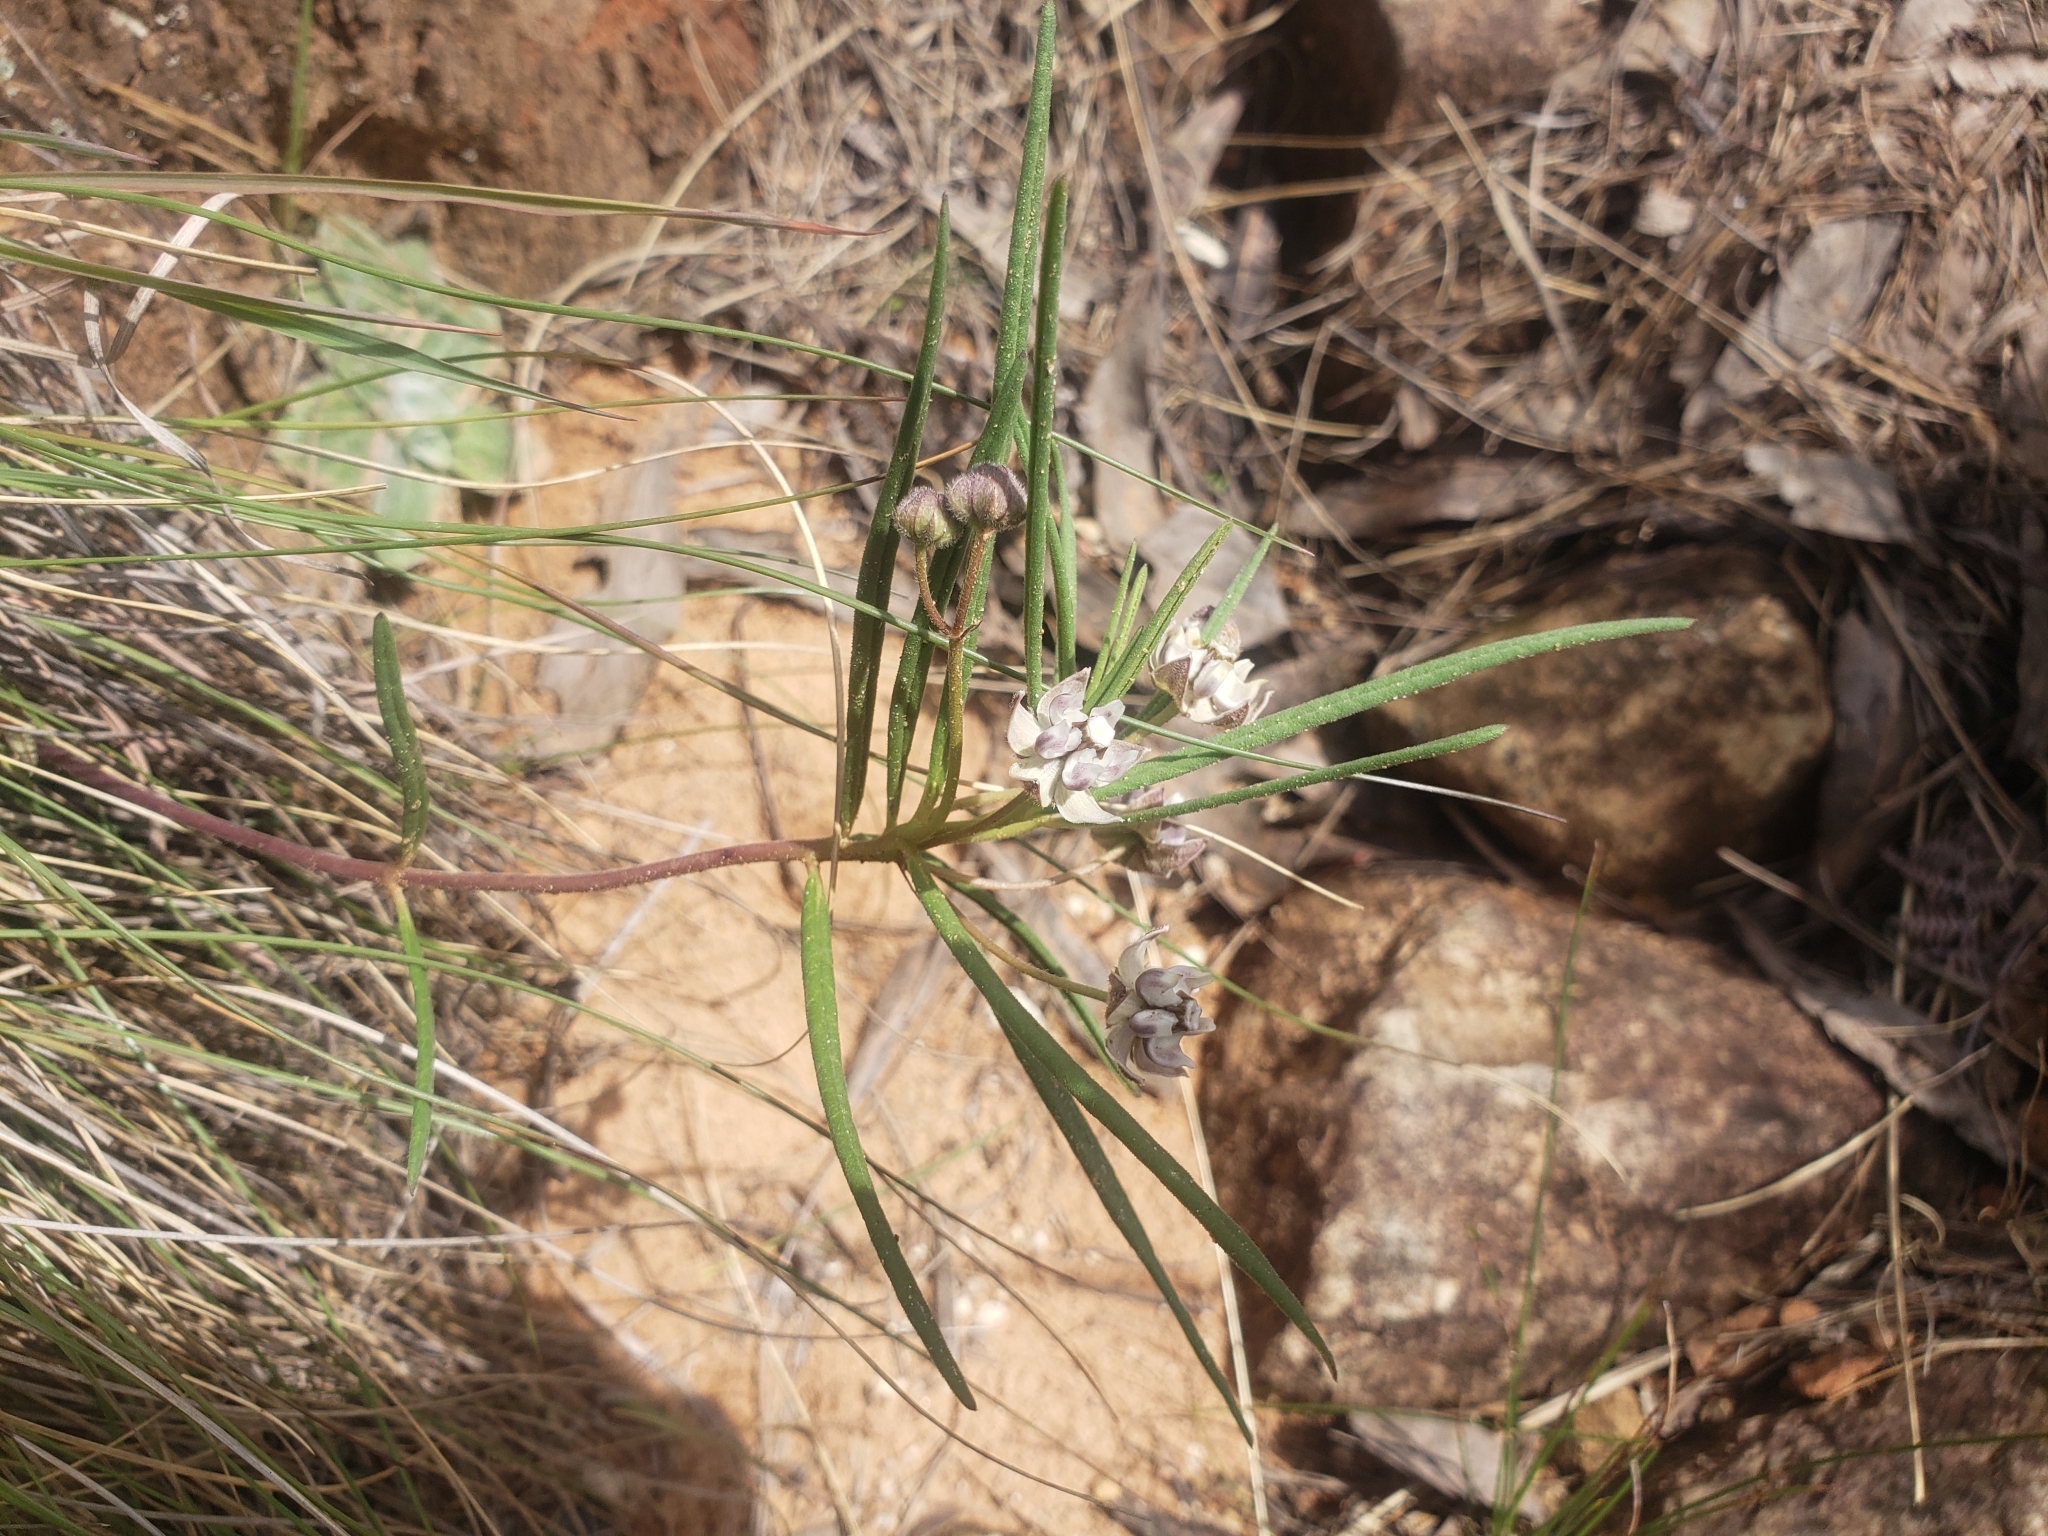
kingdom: Plantae
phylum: Tracheophyta
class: Magnoliopsida
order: Gentianales
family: Apocynaceae
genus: Asclepias
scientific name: Asclepias cucullata
